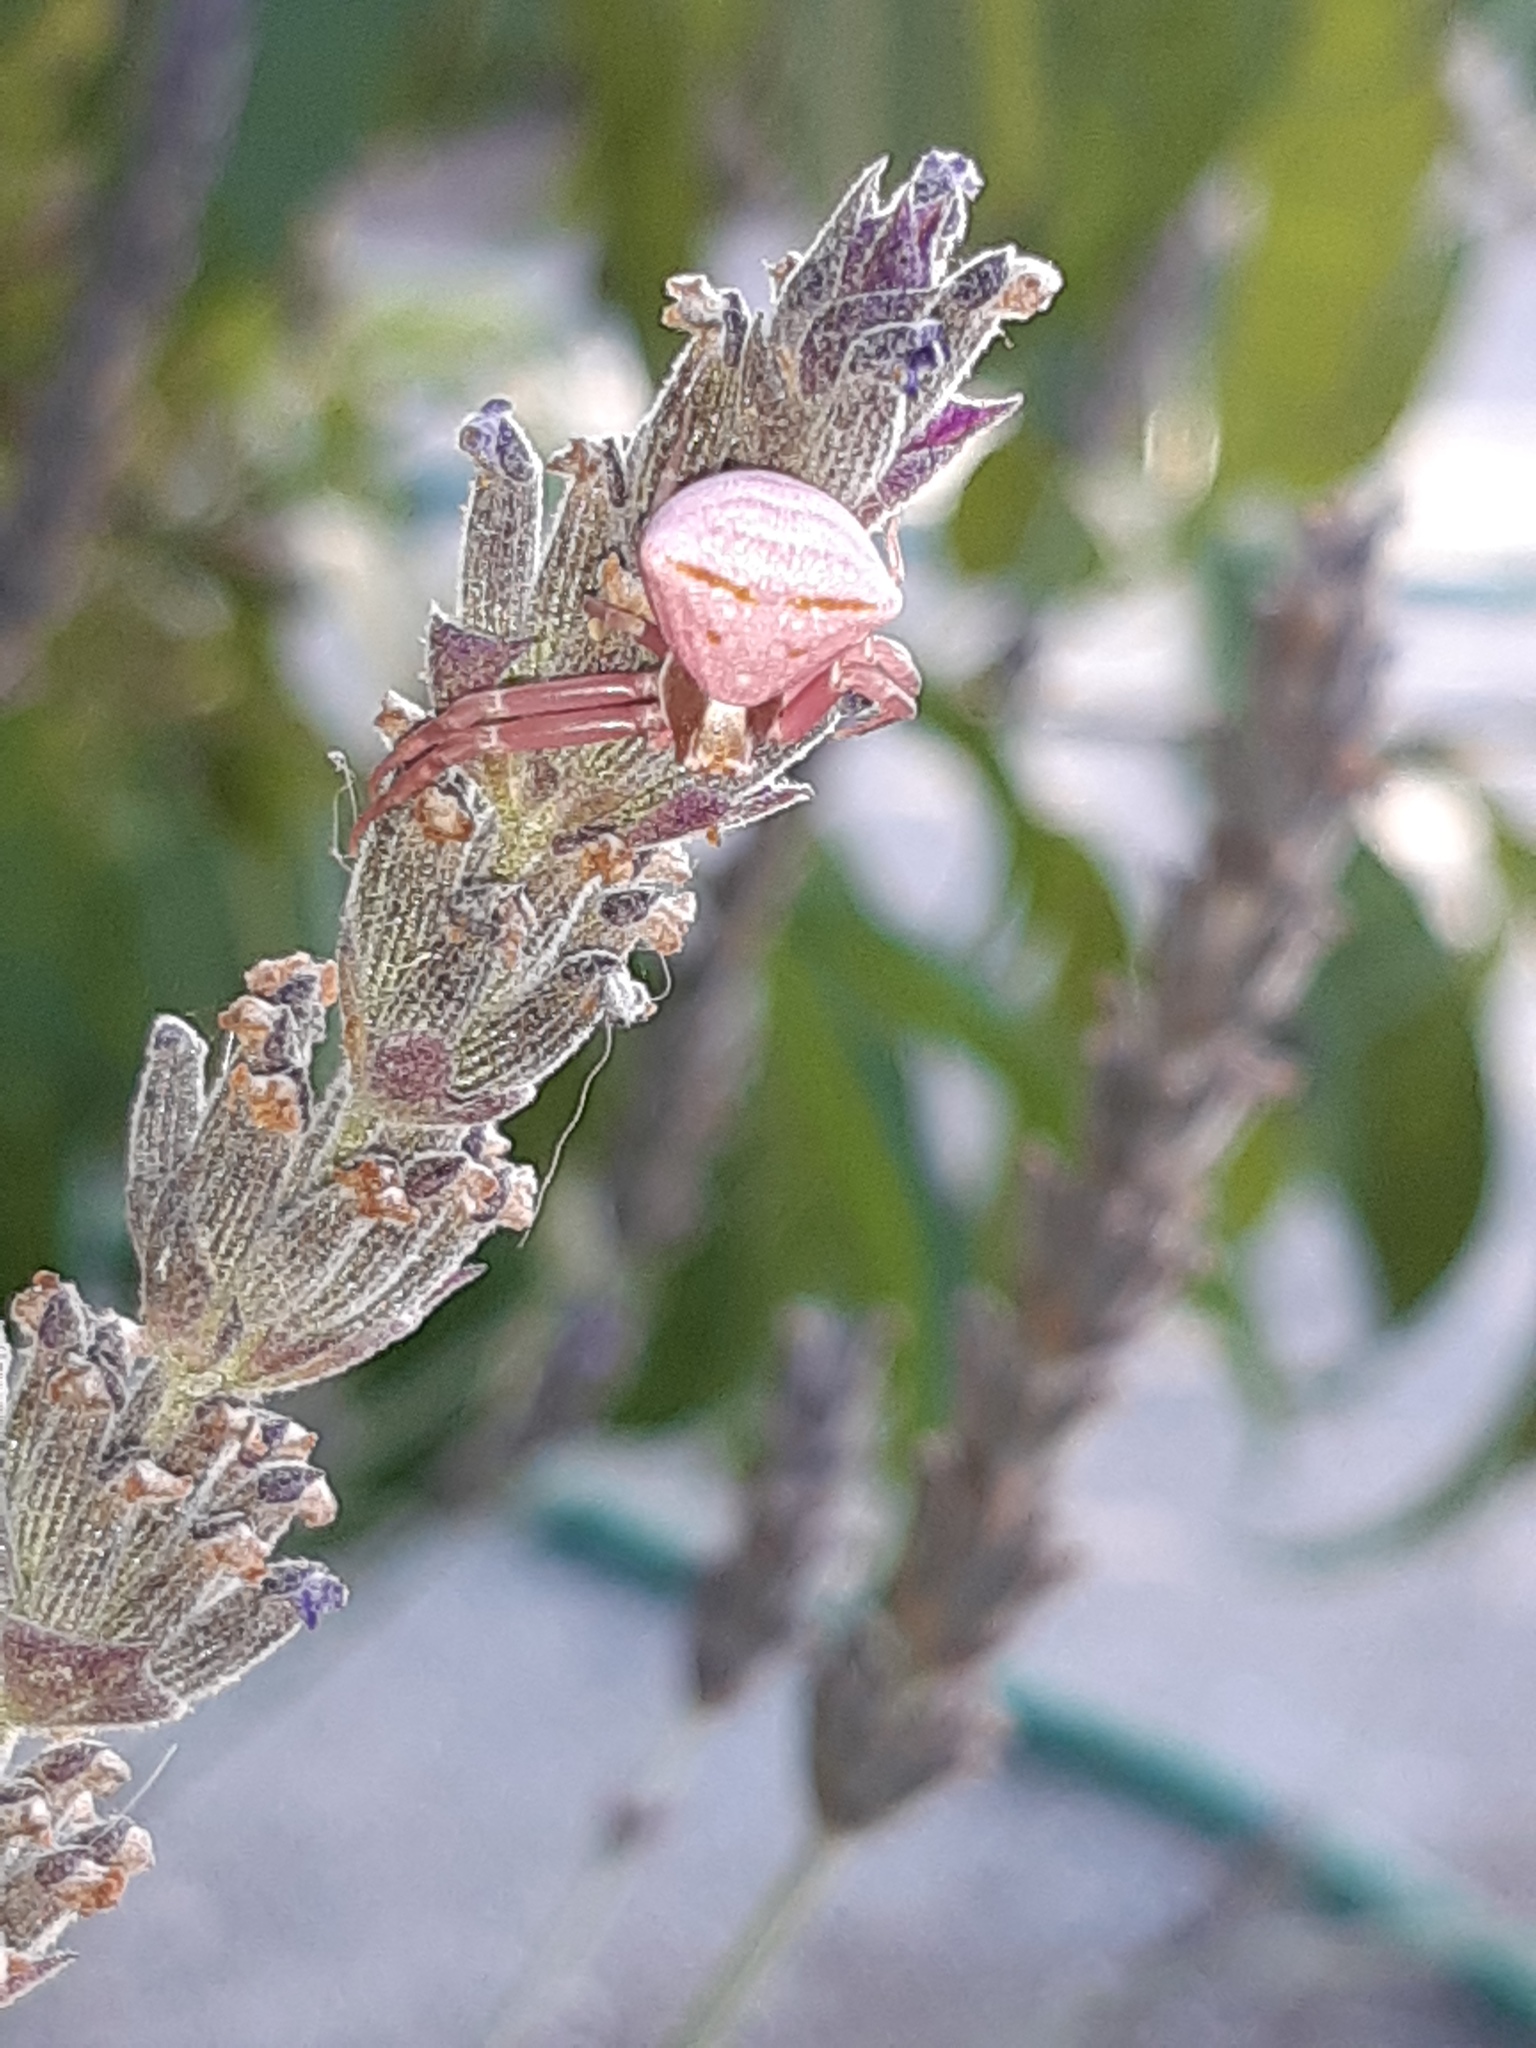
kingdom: Animalia
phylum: Arthropoda
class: Arachnida
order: Araneae
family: Thomisidae
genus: Thomisus
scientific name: Thomisus onustus
